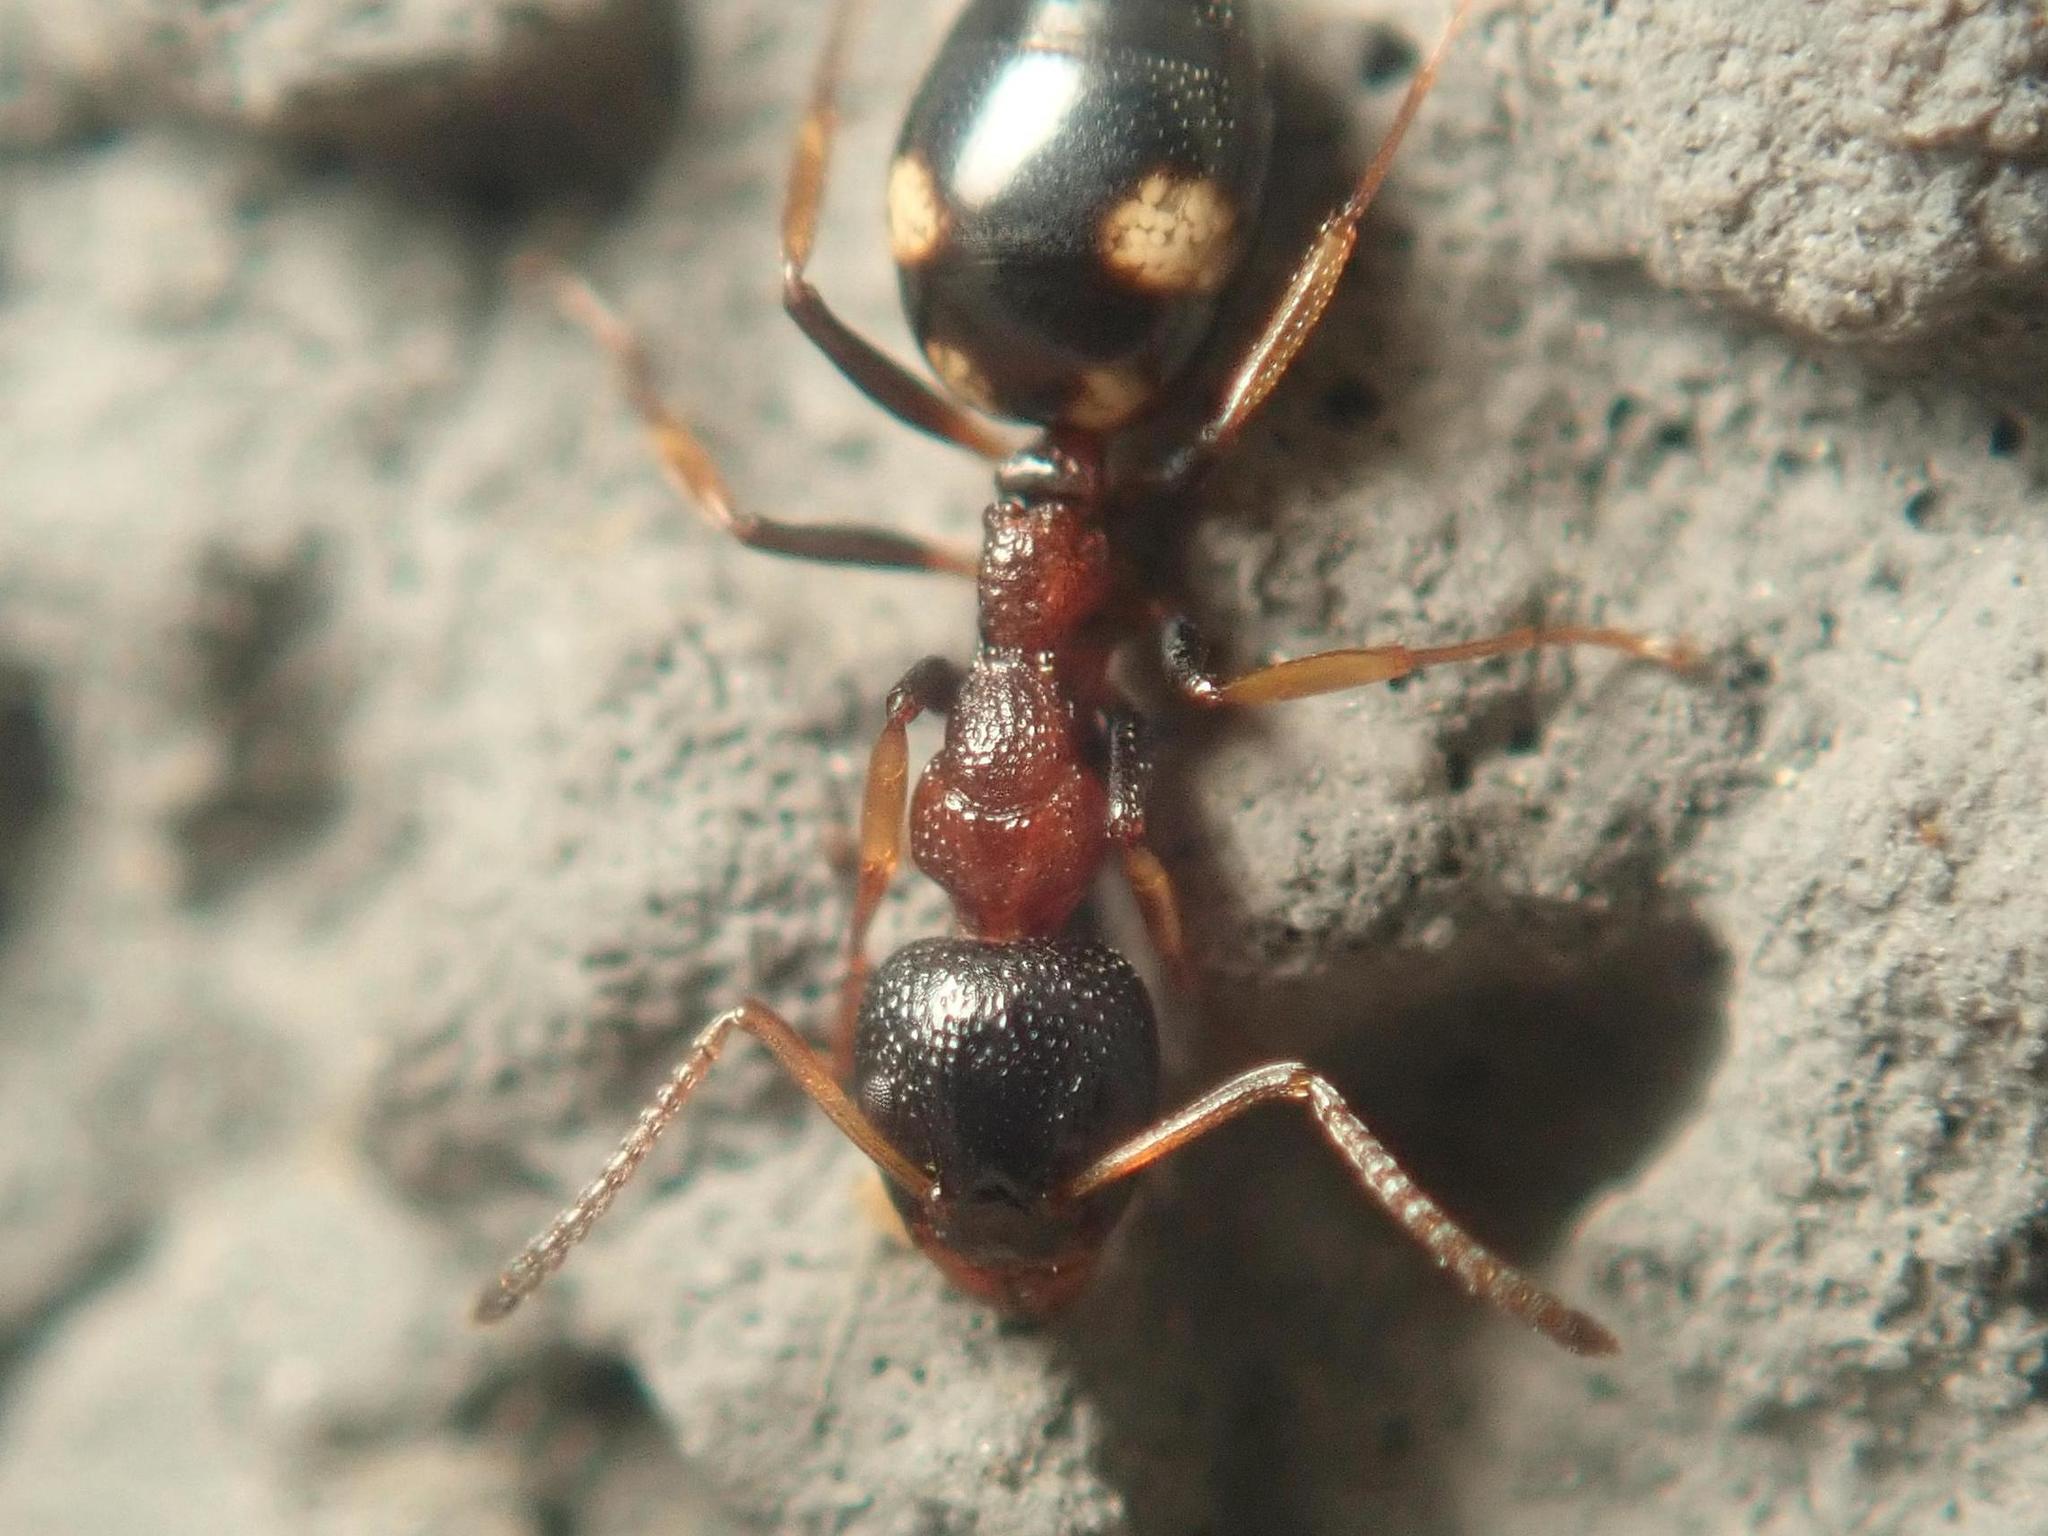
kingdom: Animalia
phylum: Arthropoda
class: Insecta
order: Hymenoptera
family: Formicidae
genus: Dolichoderus
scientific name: Dolichoderus quadripunctatus
